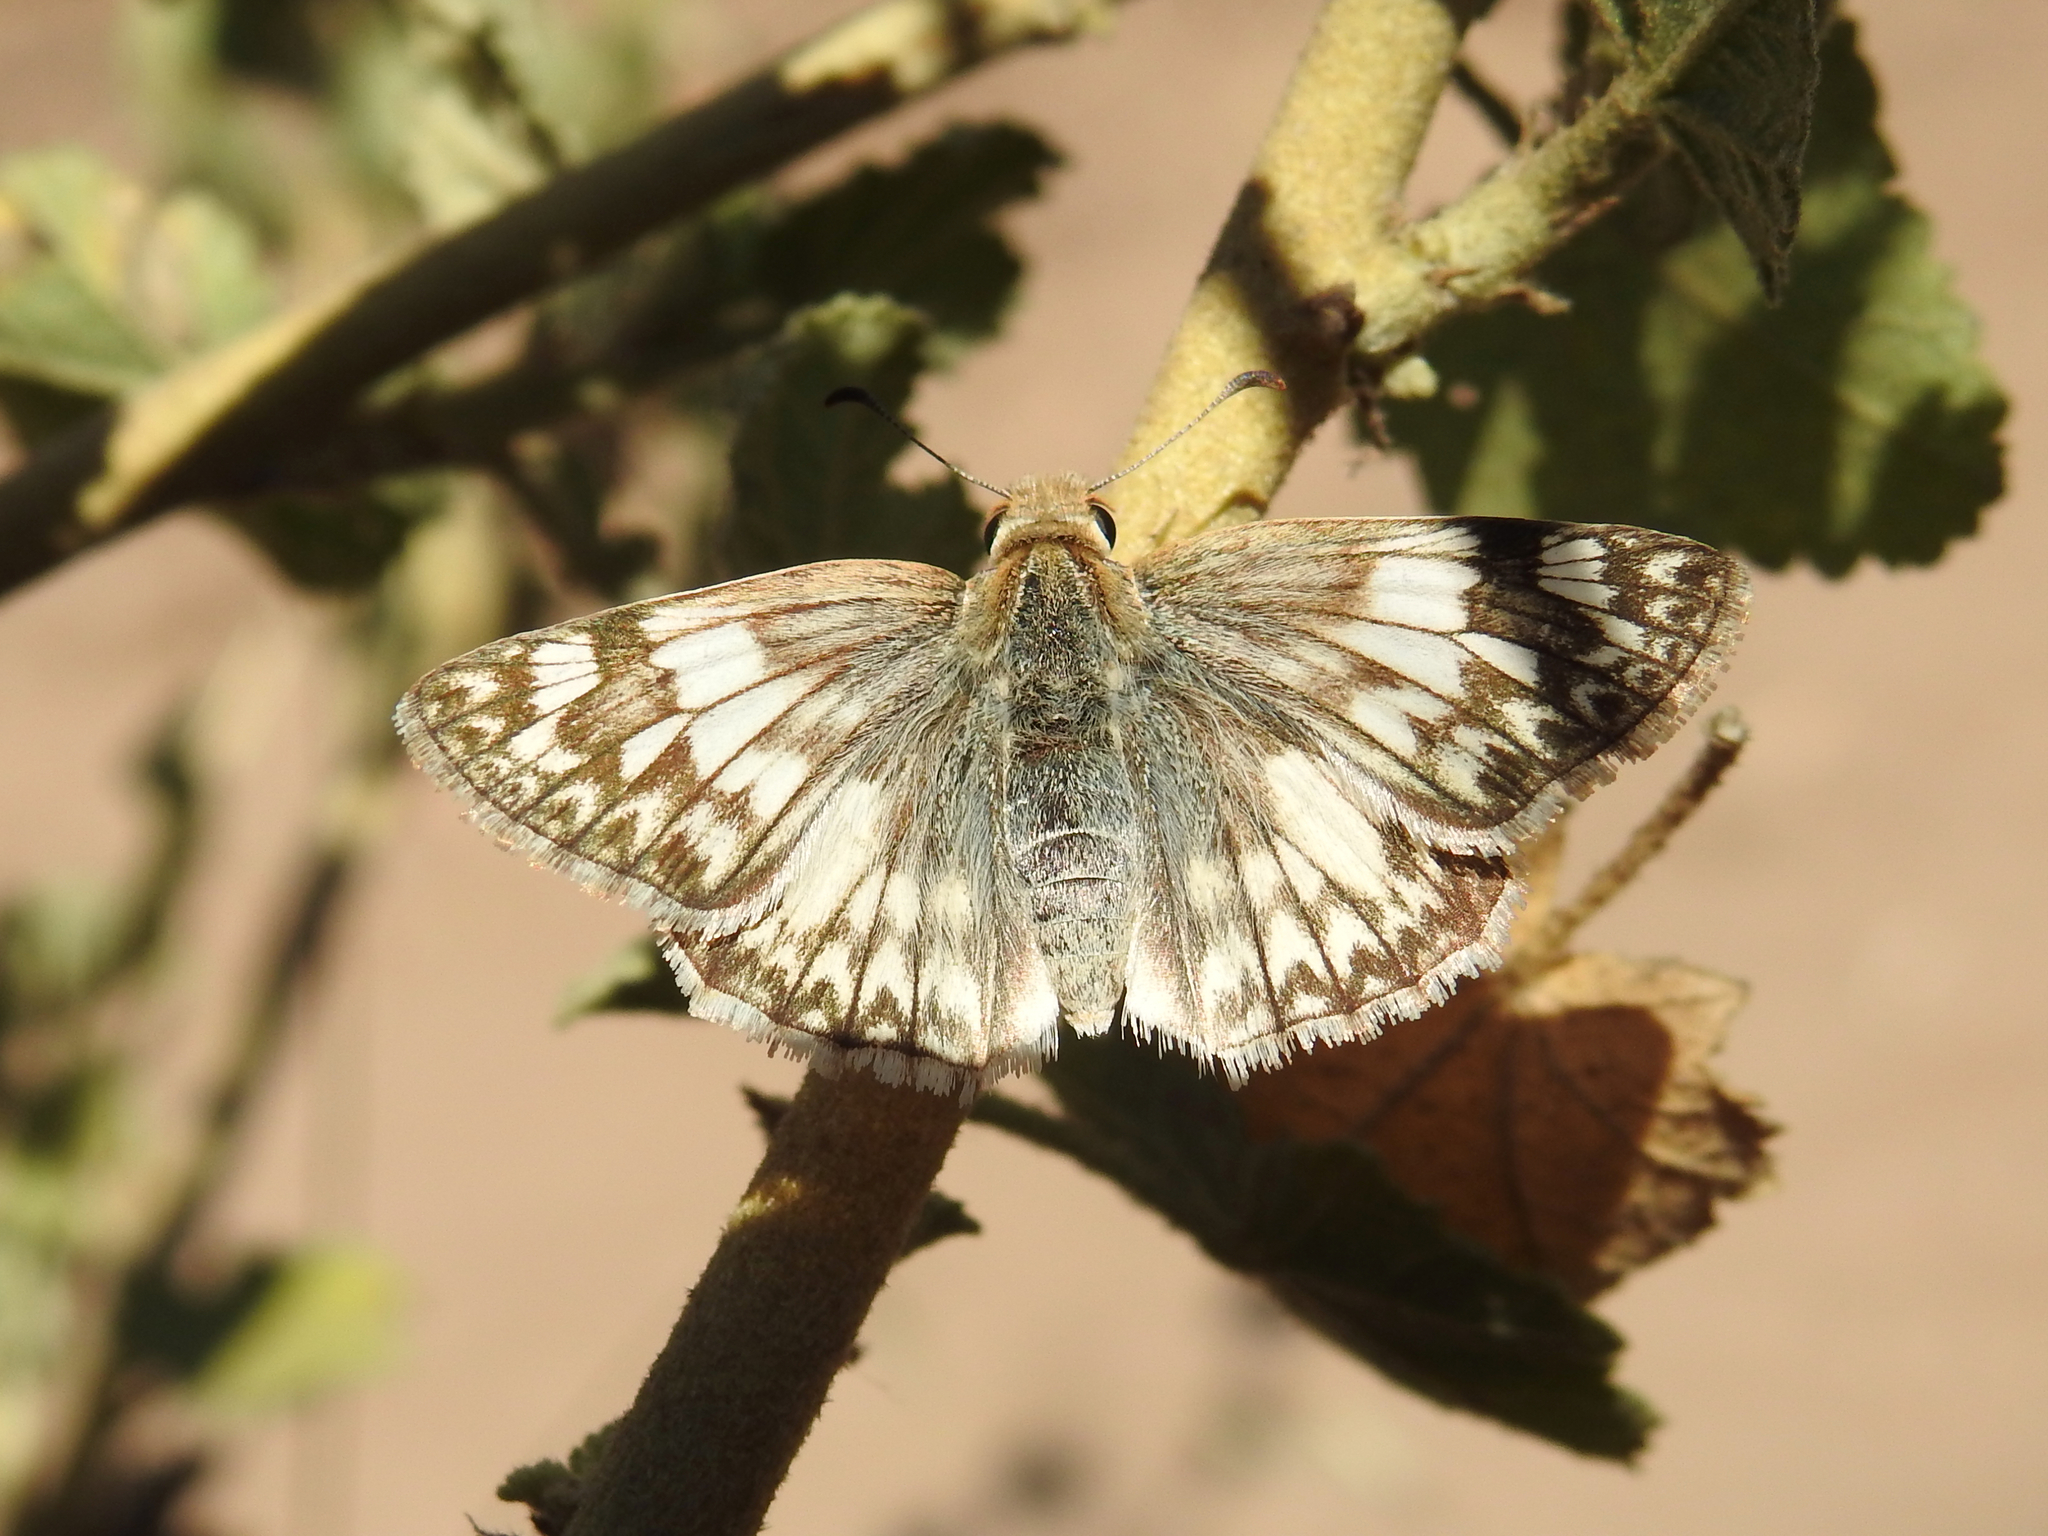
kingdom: Animalia
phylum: Arthropoda
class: Insecta
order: Lepidoptera
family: Hesperiidae
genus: Heliopetes
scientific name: Heliopetes ericetorum
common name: Northern white-skipper
